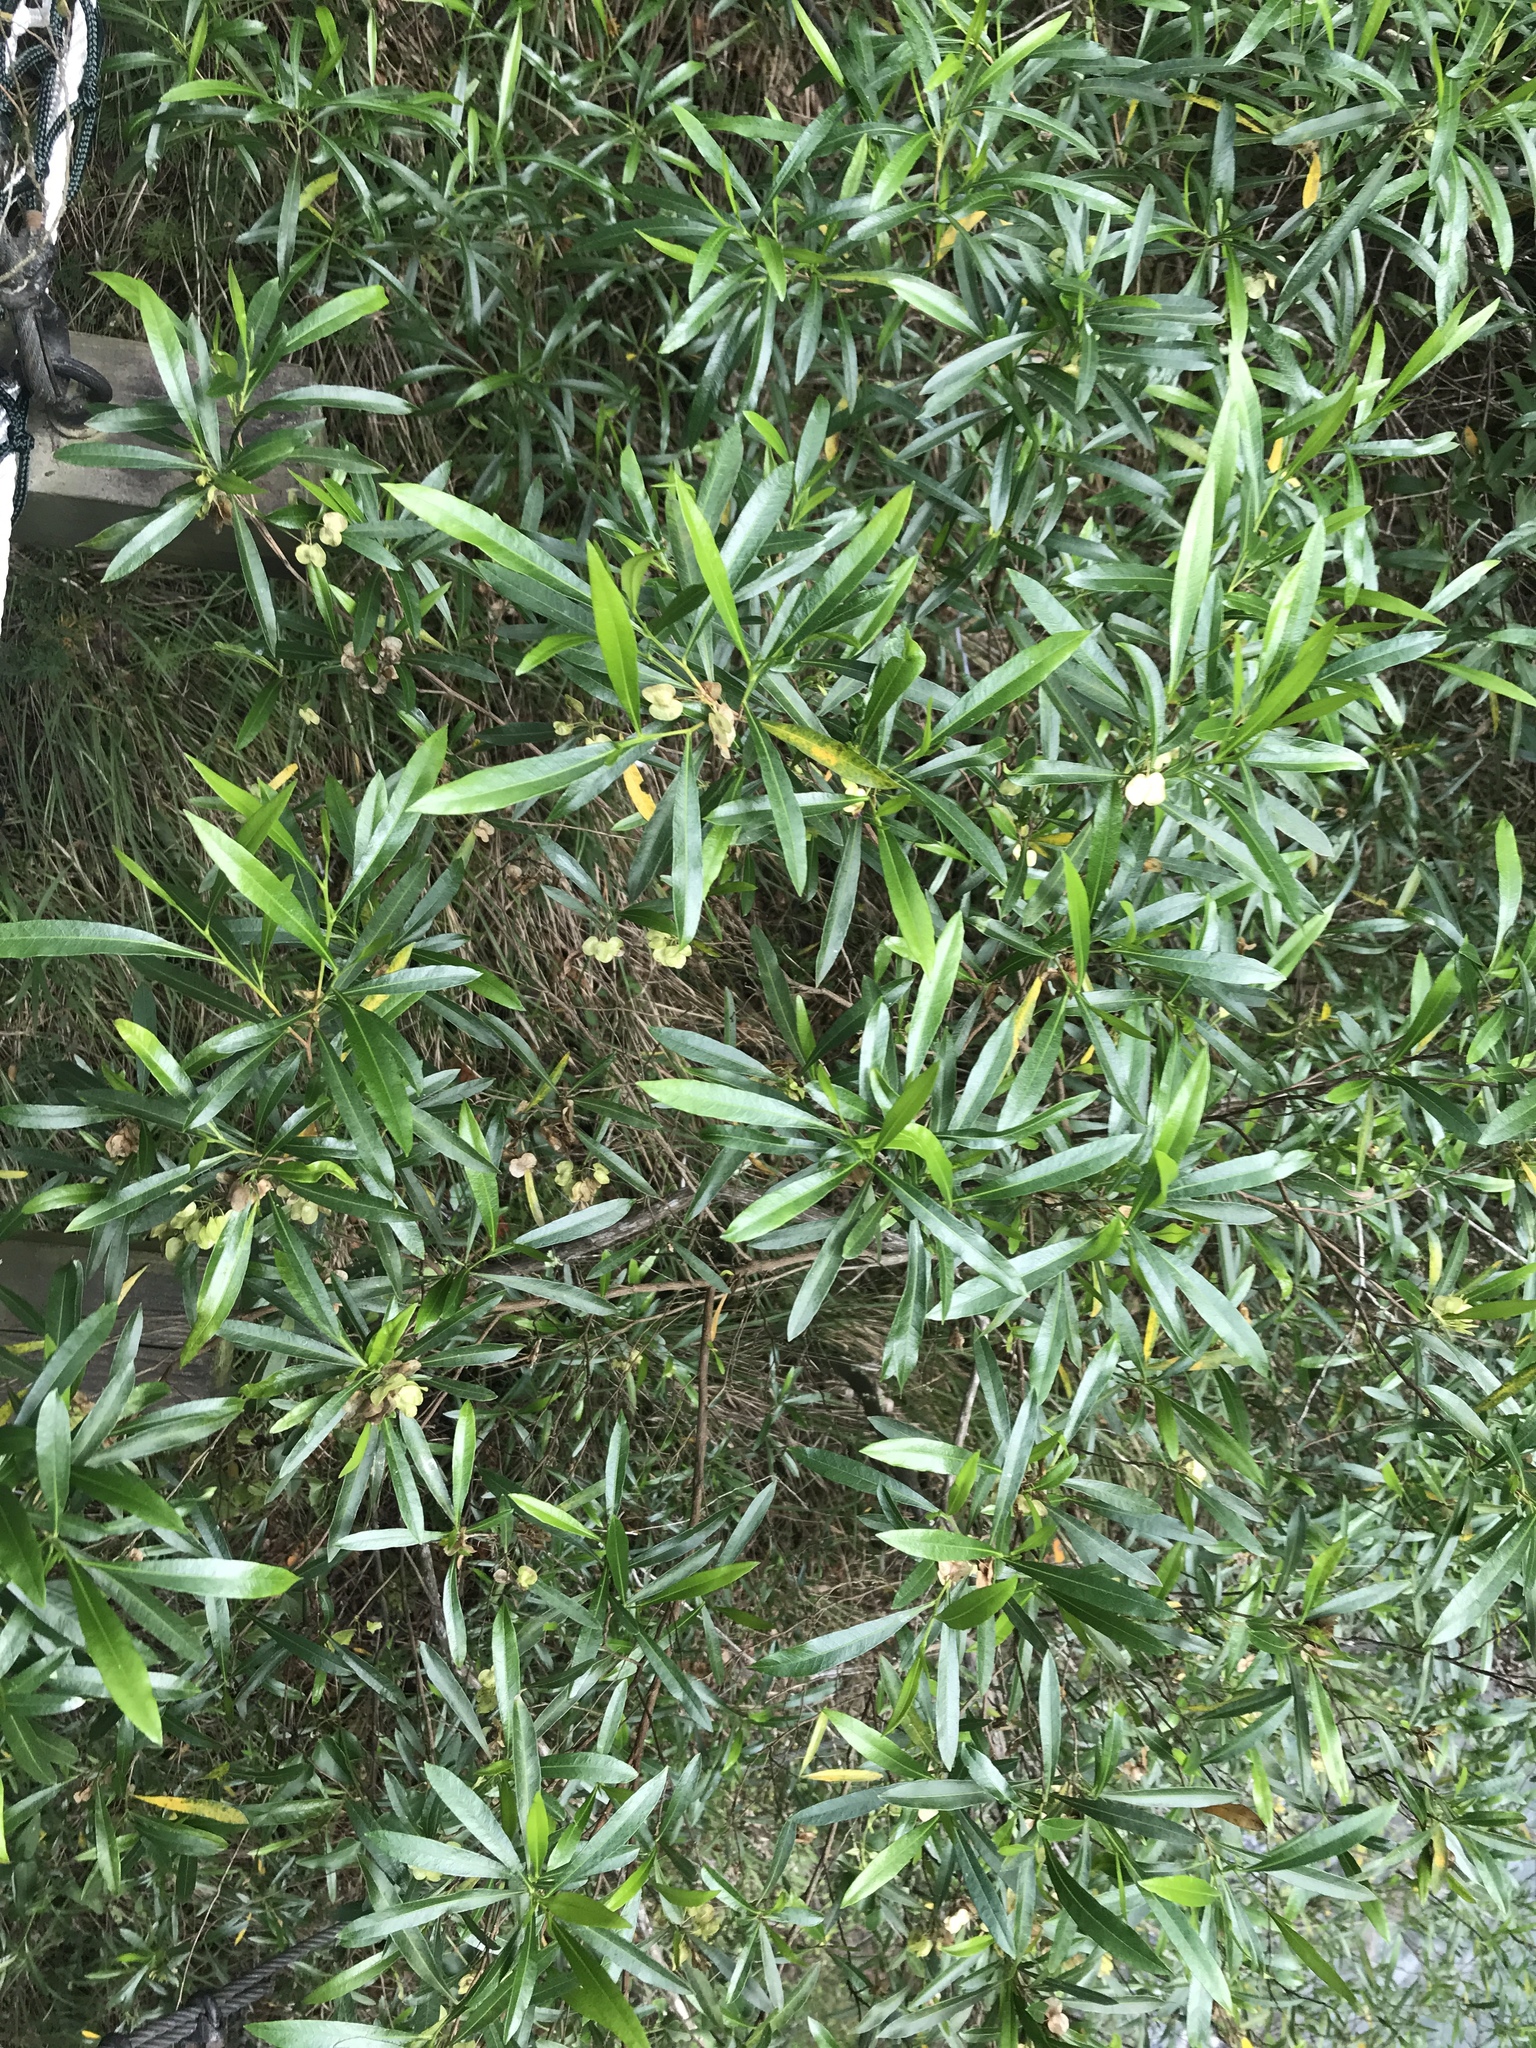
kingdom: Plantae
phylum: Tracheophyta
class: Magnoliopsida
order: Sapindales
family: Sapindaceae
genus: Dodonaea
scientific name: Dodonaea viscosa
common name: Hopbush
